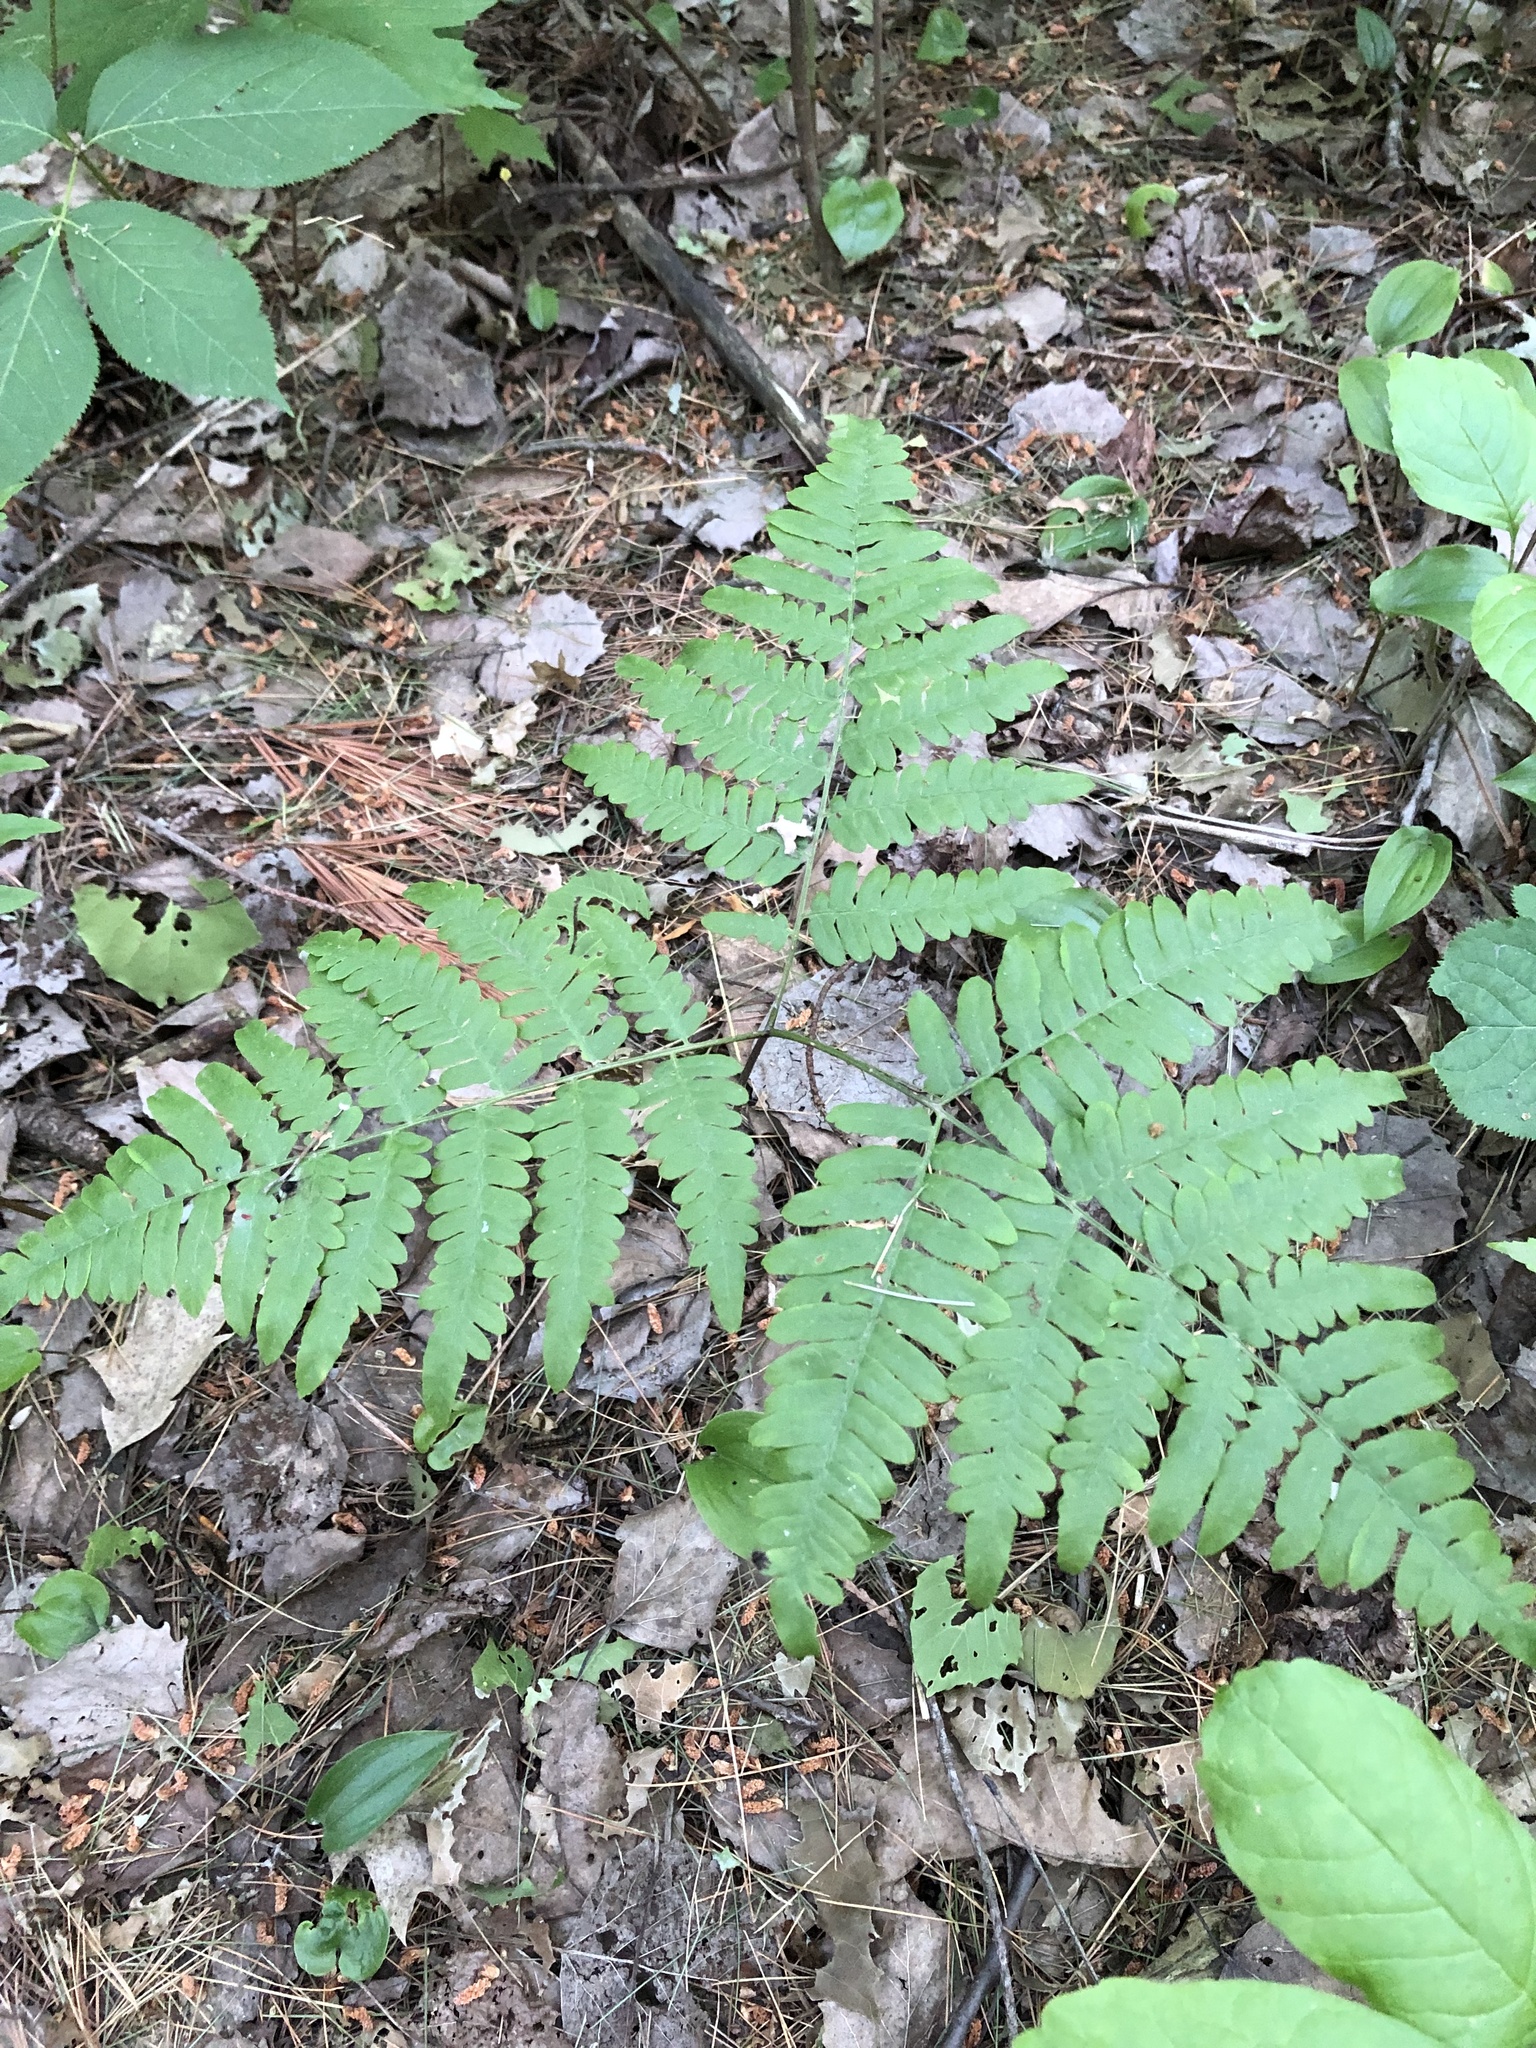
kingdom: Plantae
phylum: Tracheophyta
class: Polypodiopsida
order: Polypodiales
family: Dennstaedtiaceae
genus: Pteridium
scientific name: Pteridium aquilinum
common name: Bracken
